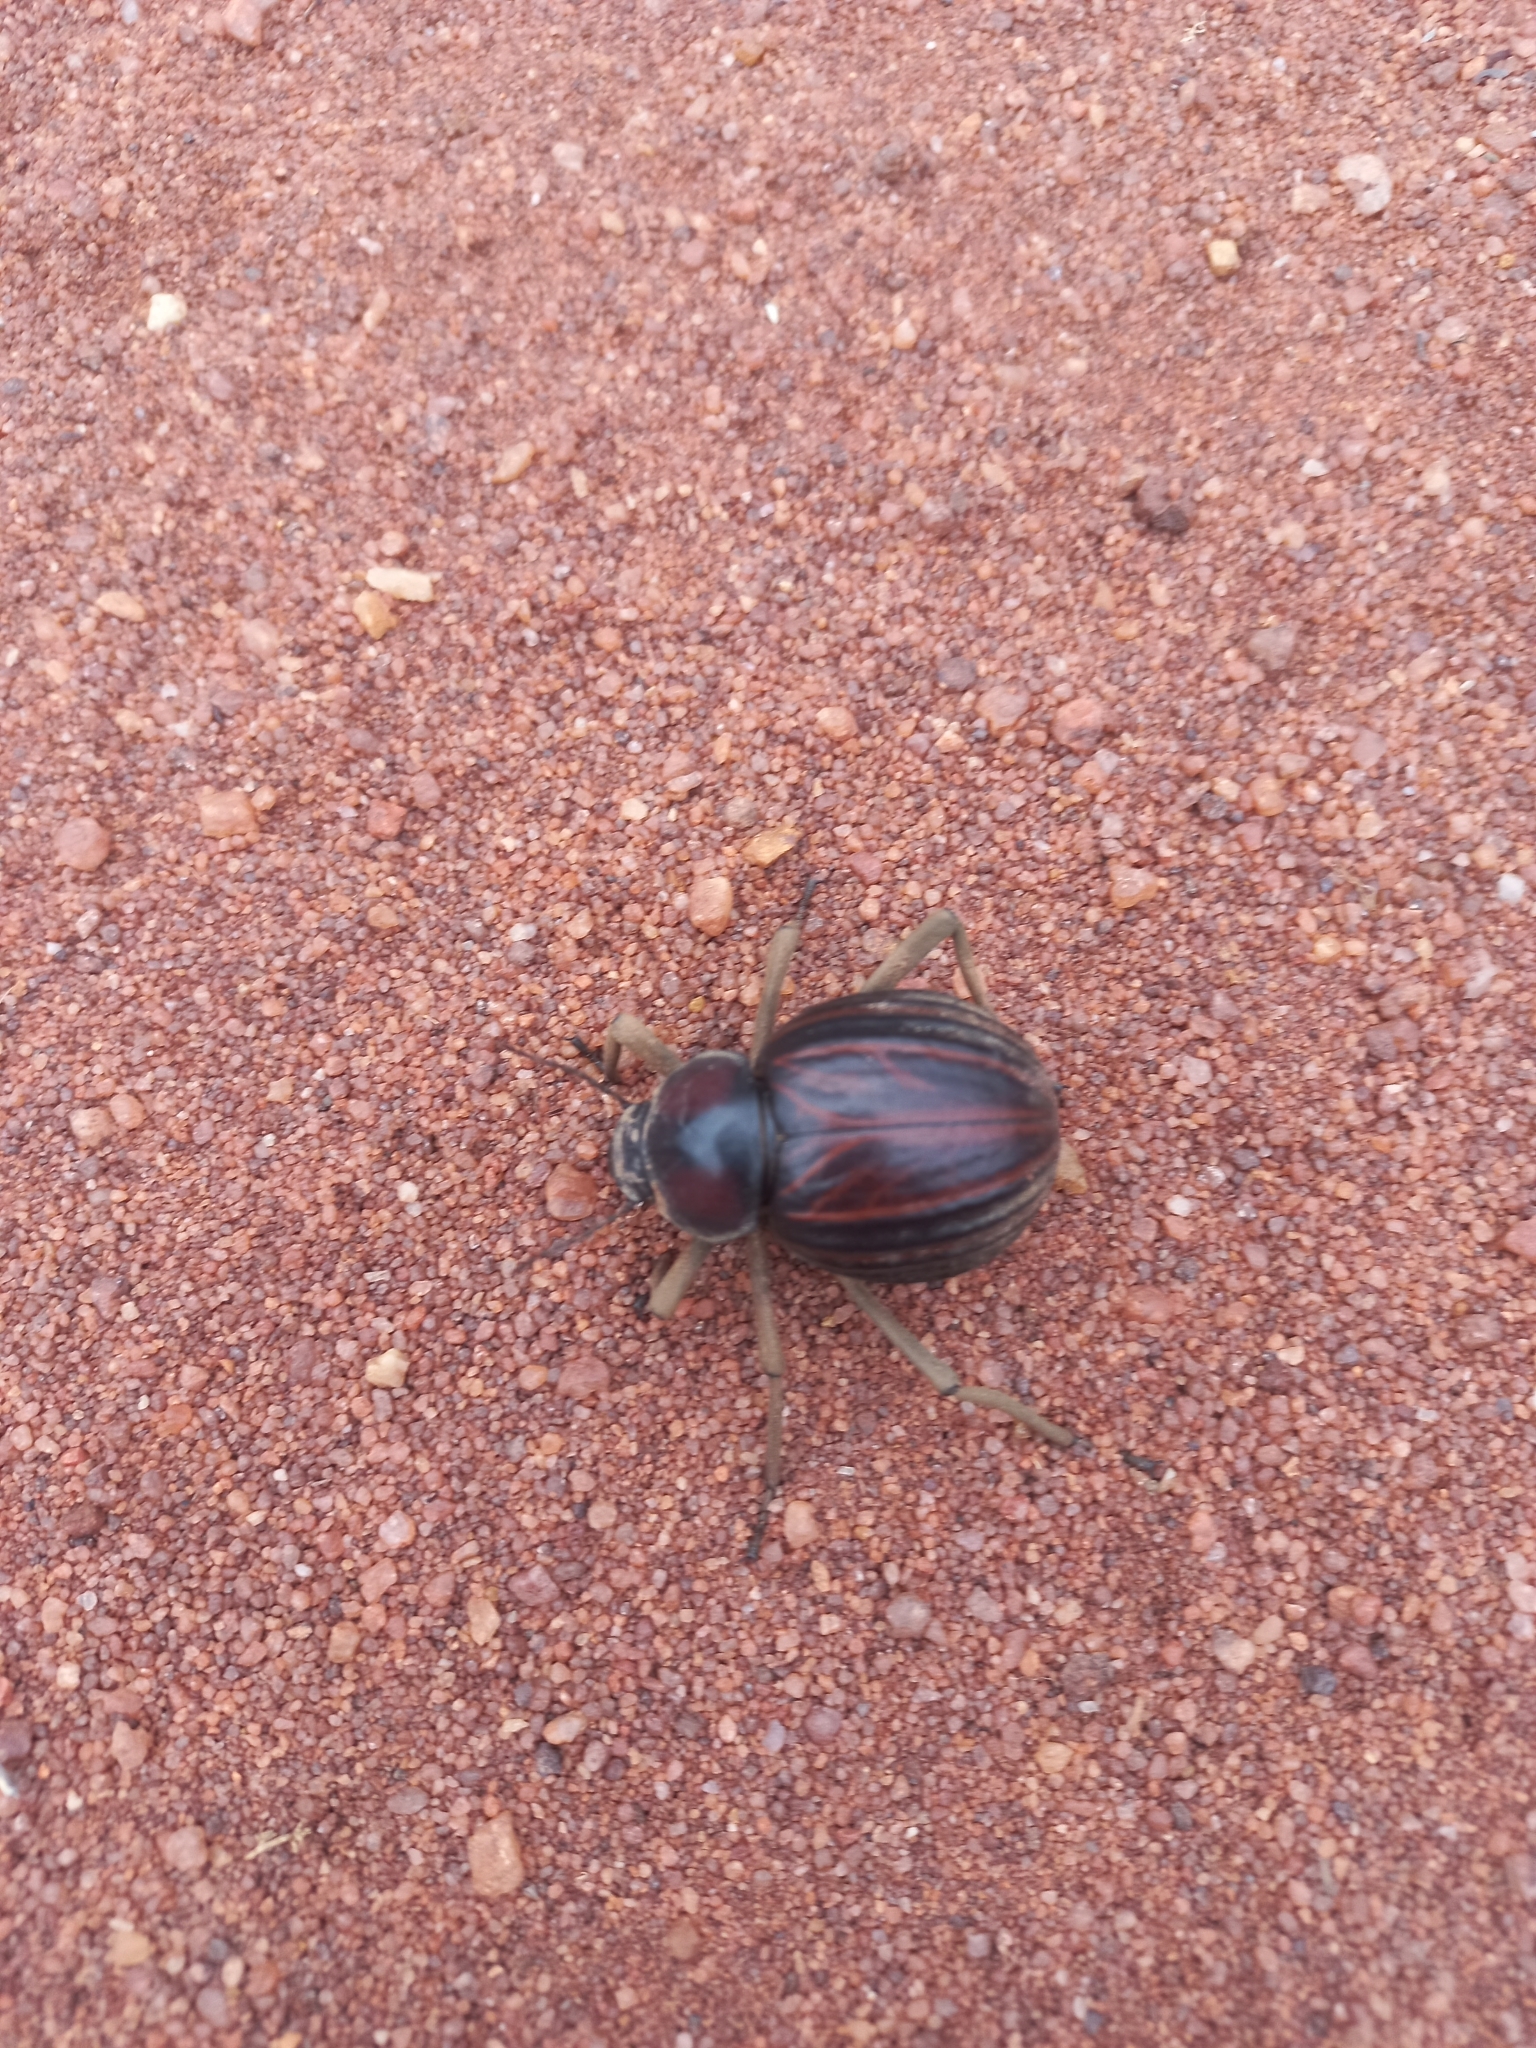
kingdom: Animalia
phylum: Arthropoda
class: Insecta
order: Coleoptera
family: Tenebrionidae
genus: Mariazofia
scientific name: Mariazofia
